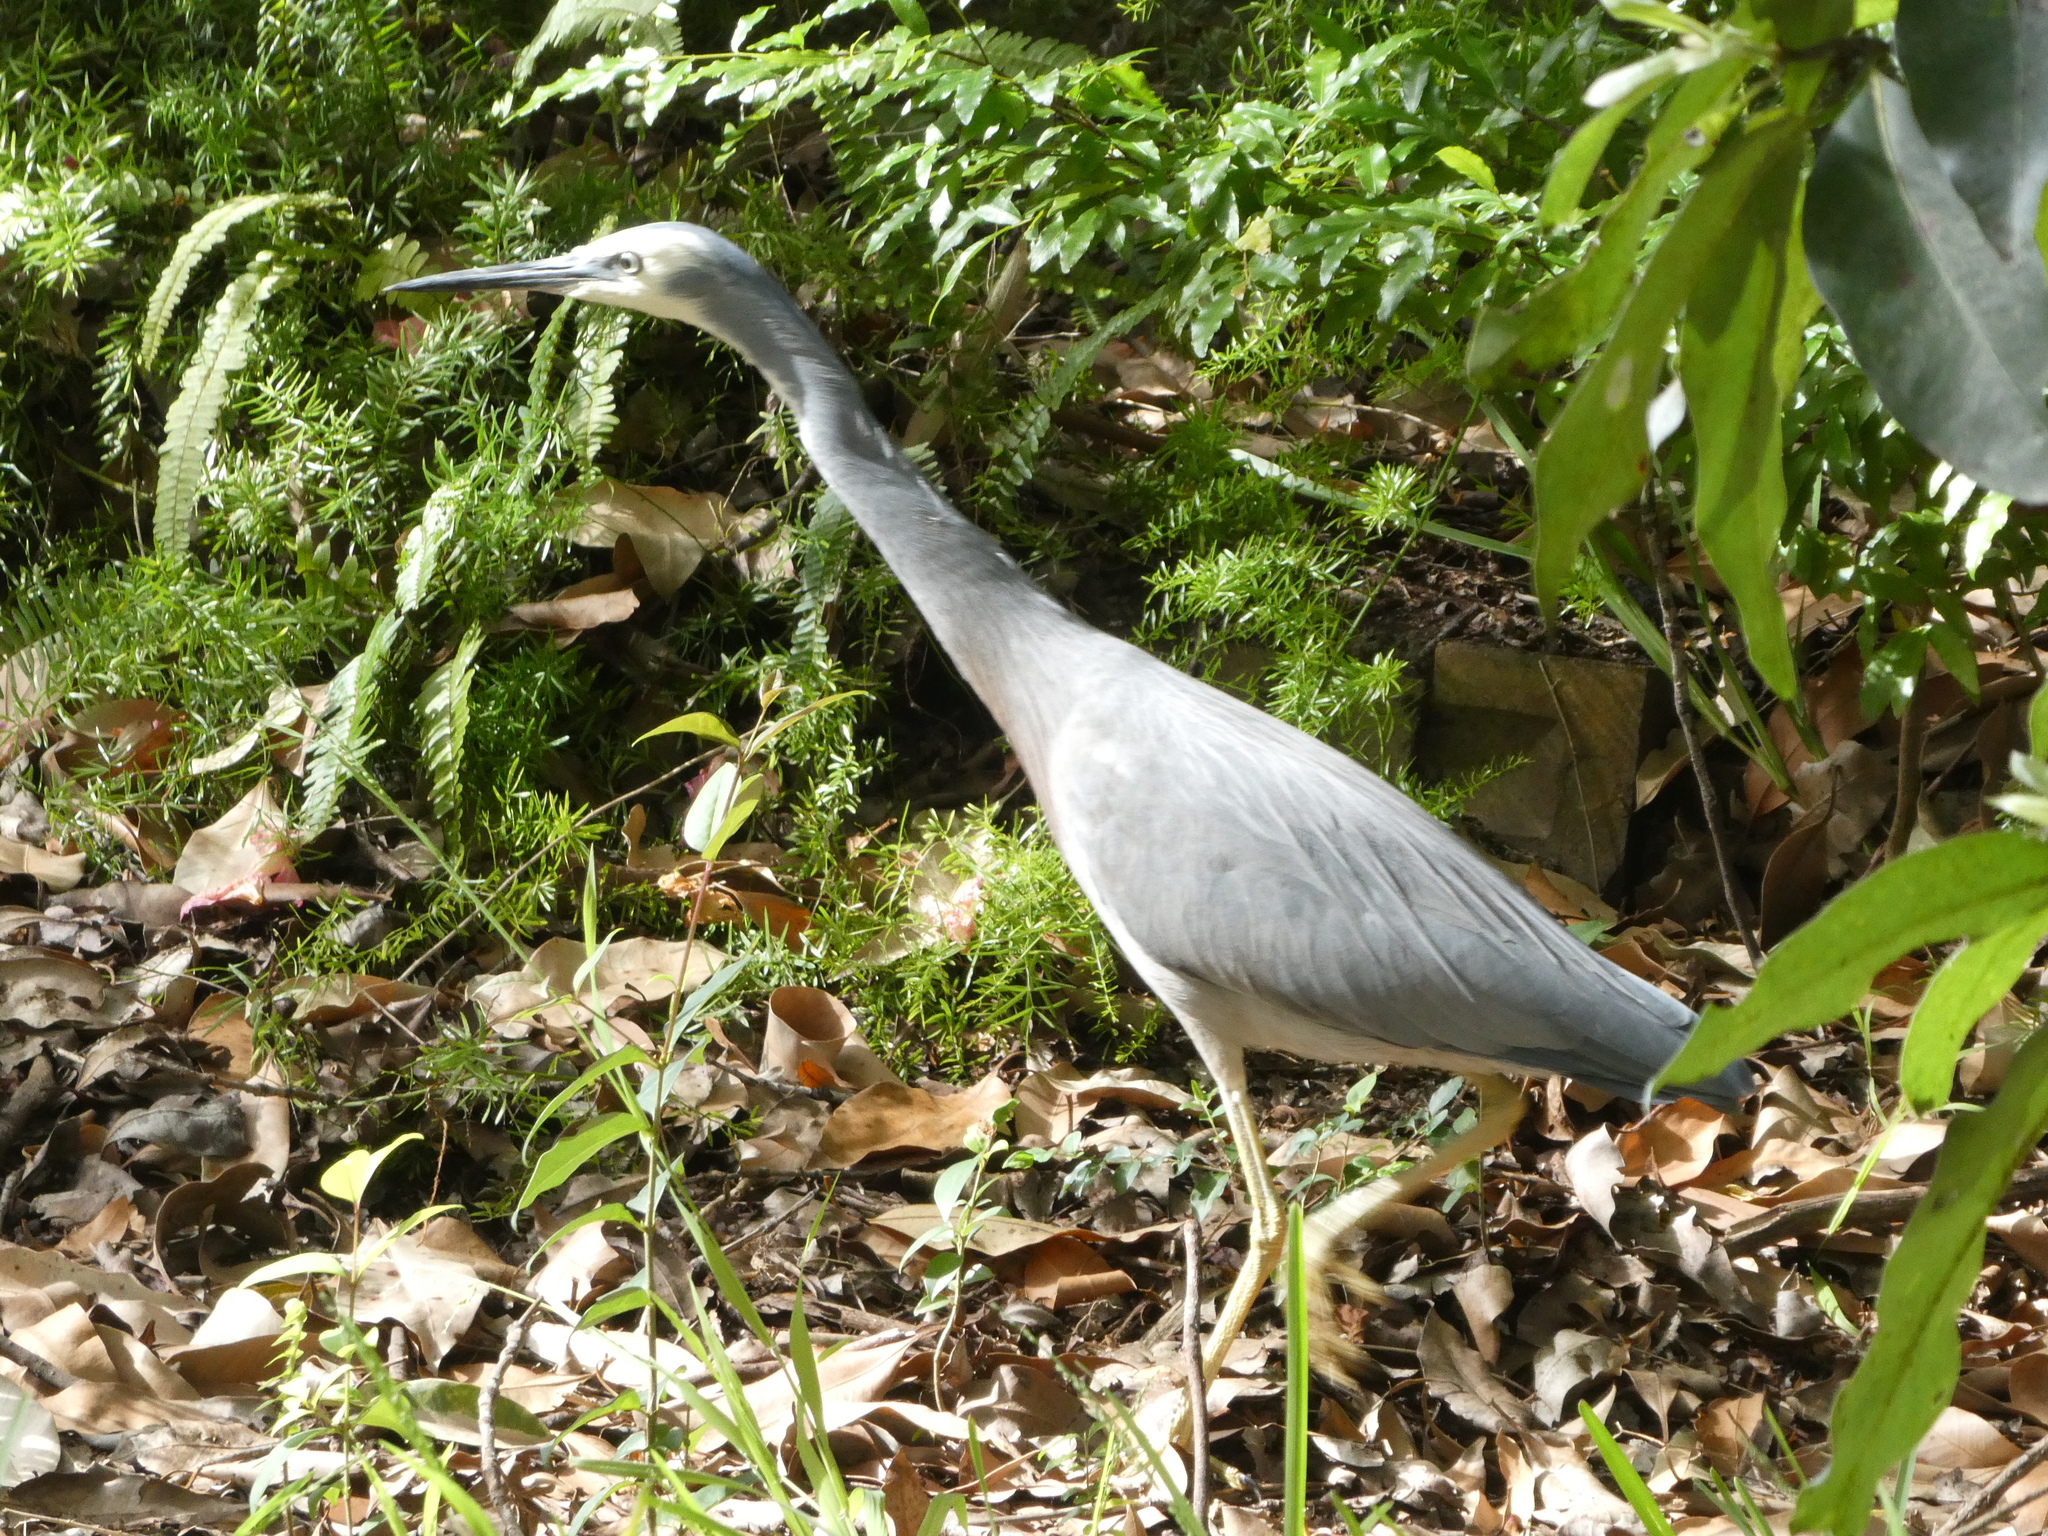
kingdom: Animalia
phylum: Chordata
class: Aves
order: Pelecaniformes
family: Ardeidae
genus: Egretta
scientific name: Egretta novaehollandiae
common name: White-faced heron
